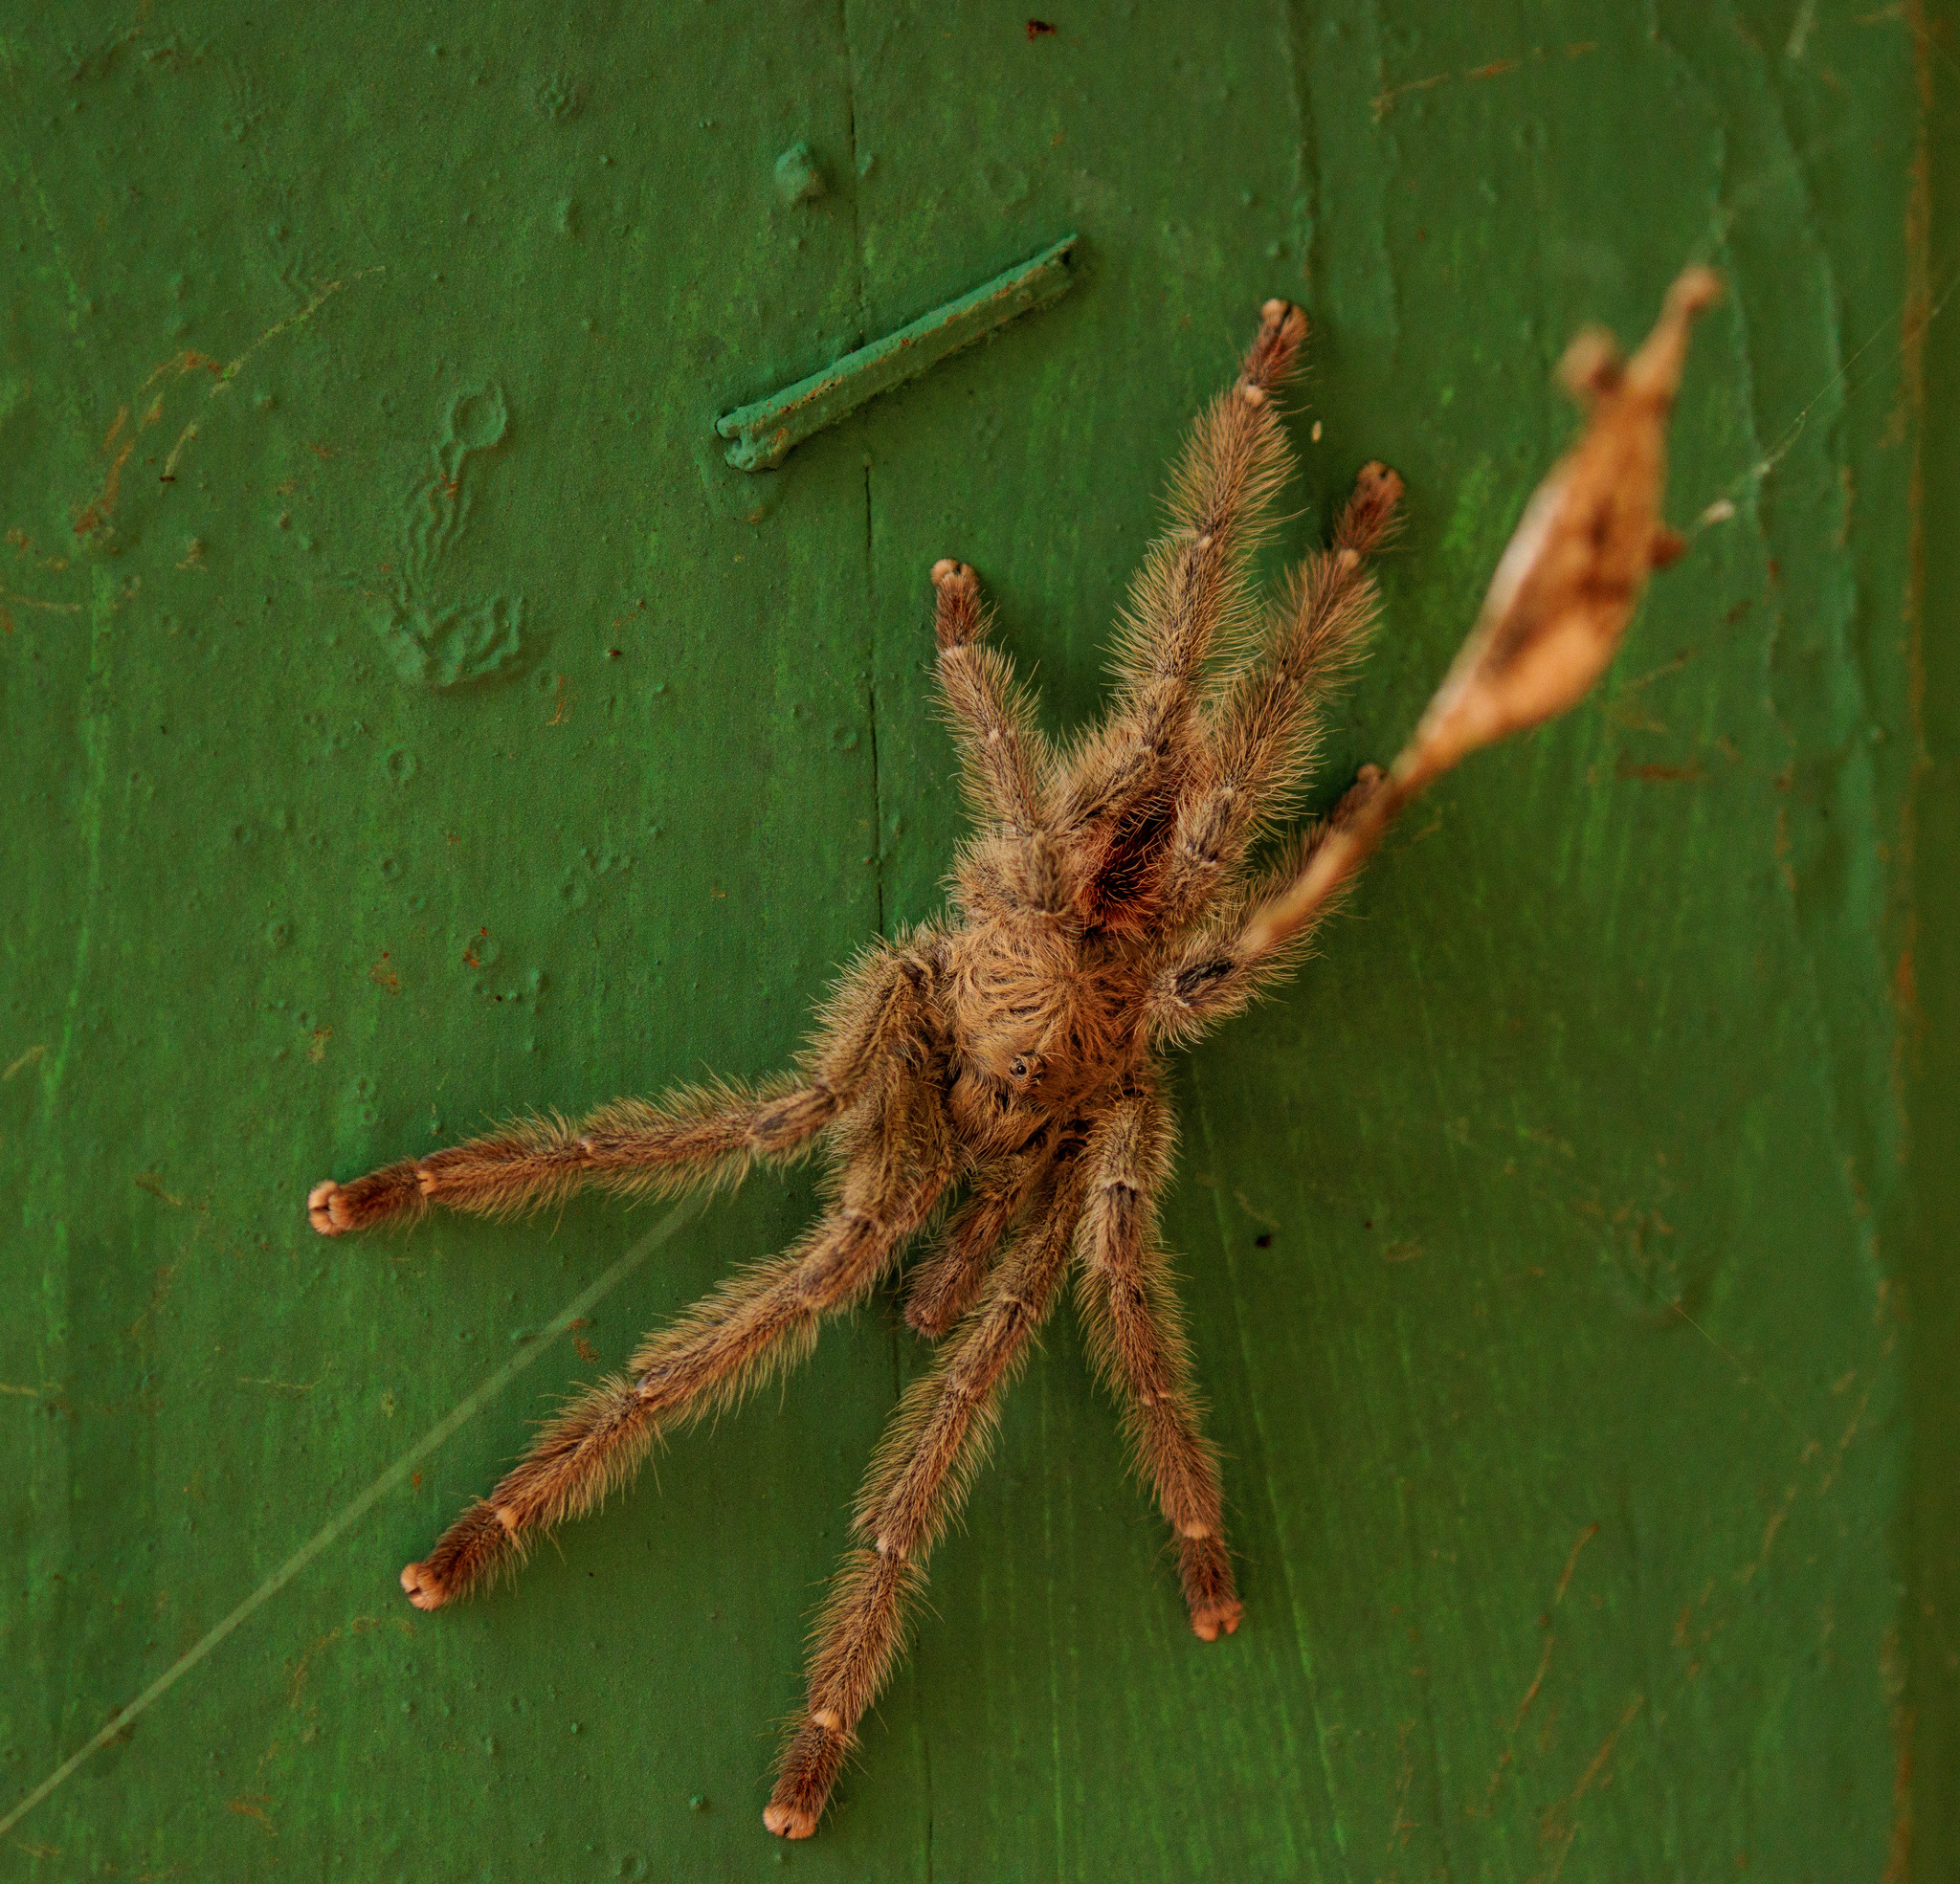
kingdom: Animalia
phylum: Arthropoda
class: Arachnida
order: Araneae
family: Theraphosidae
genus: Iridopelma
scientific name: Iridopelma hirsutum
